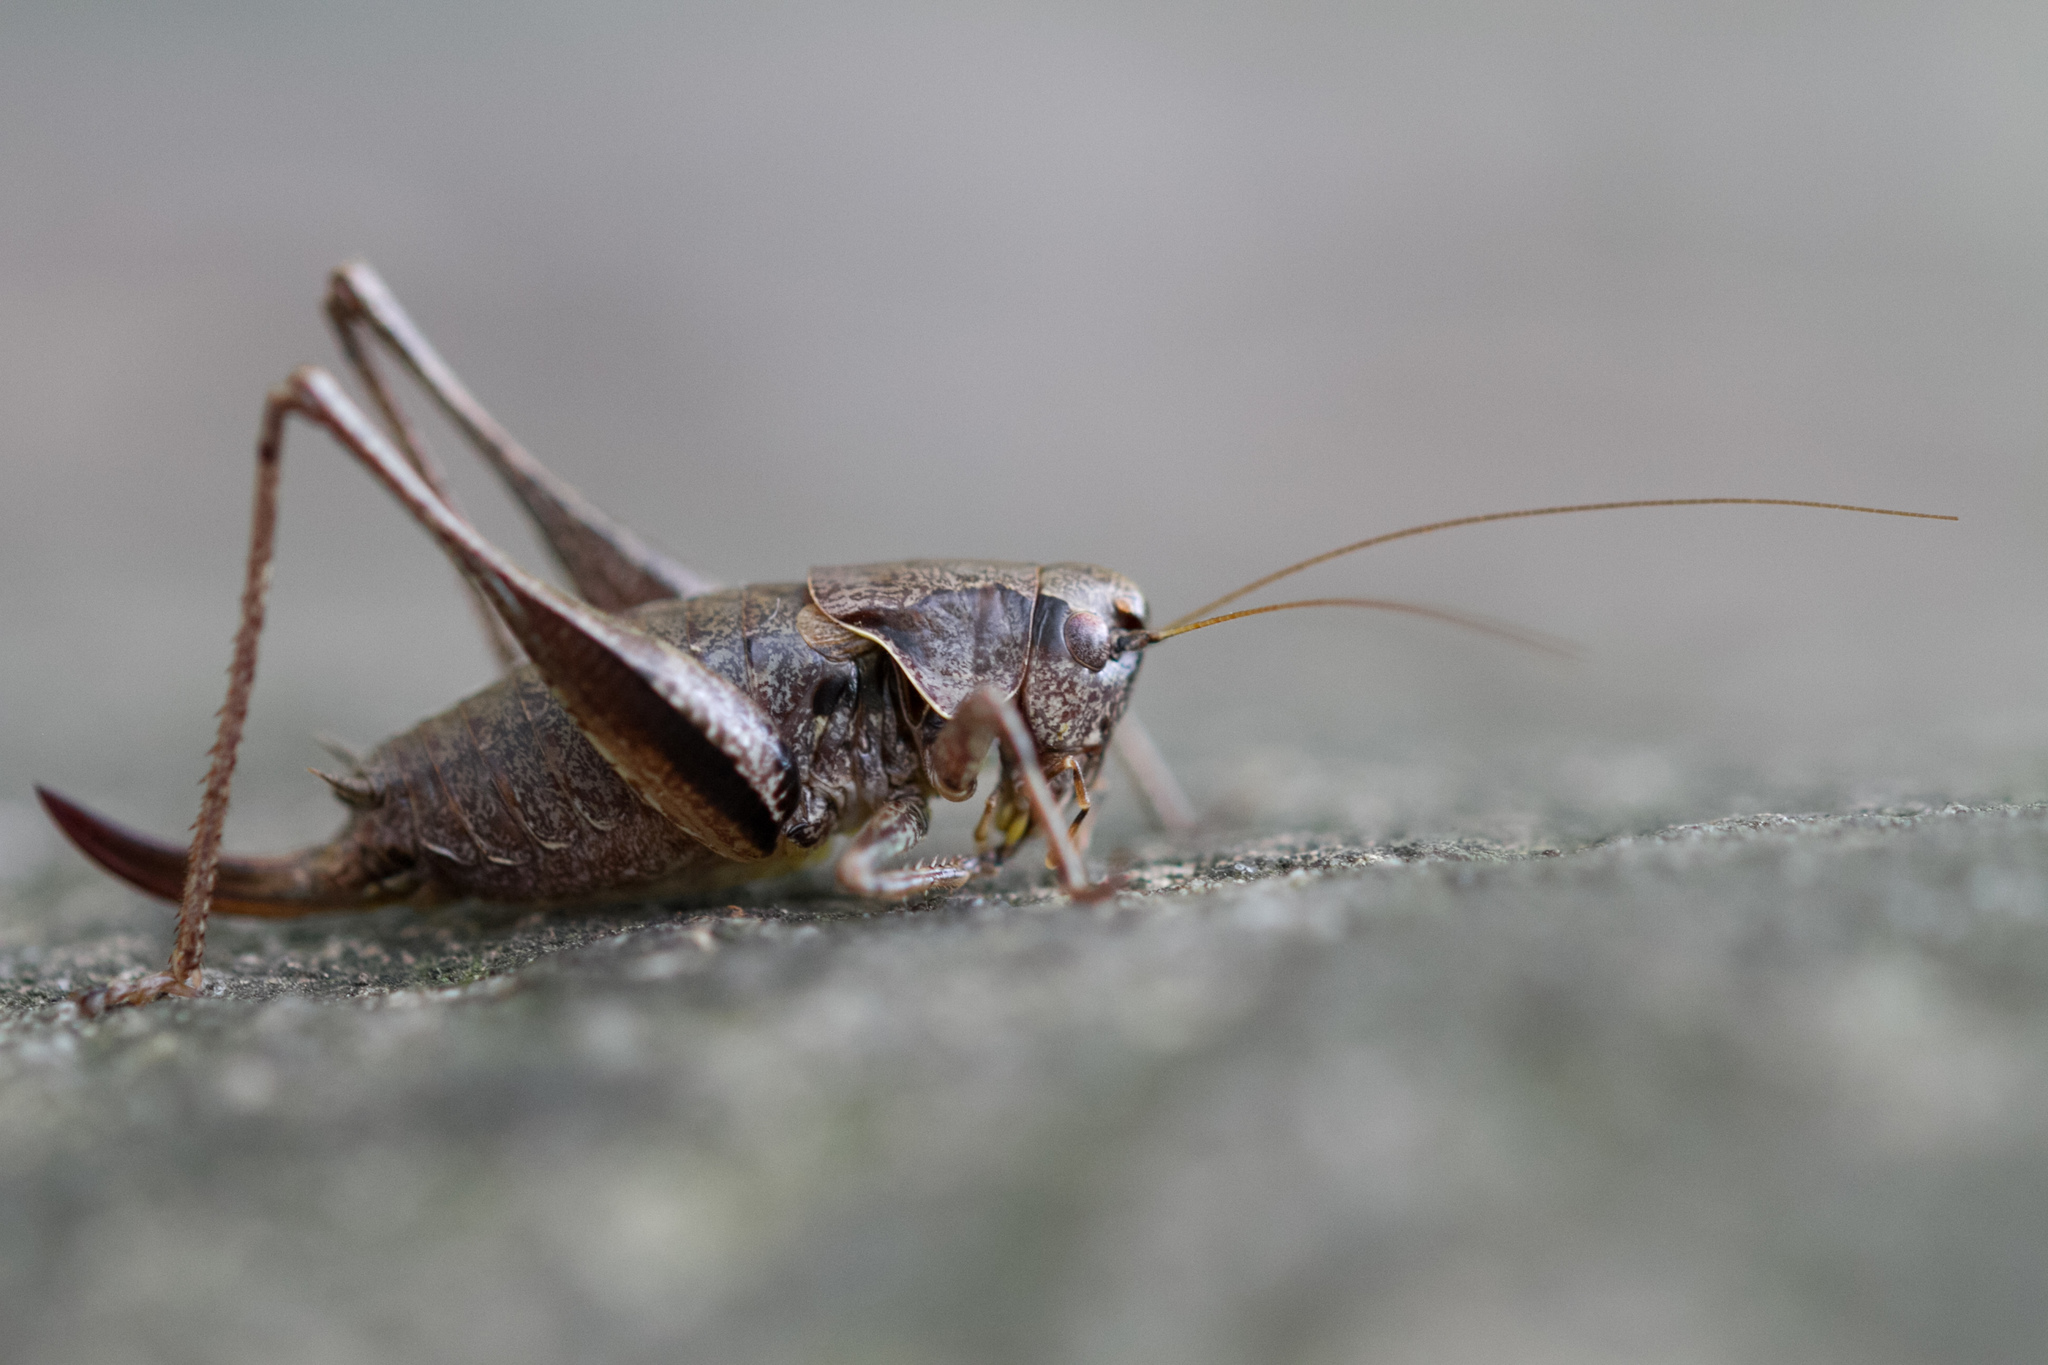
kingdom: Animalia
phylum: Arthropoda
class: Insecta
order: Orthoptera
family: Tettigoniidae
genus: Pholidoptera
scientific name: Pholidoptera griseoaptera
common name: Dark bush-cricket
